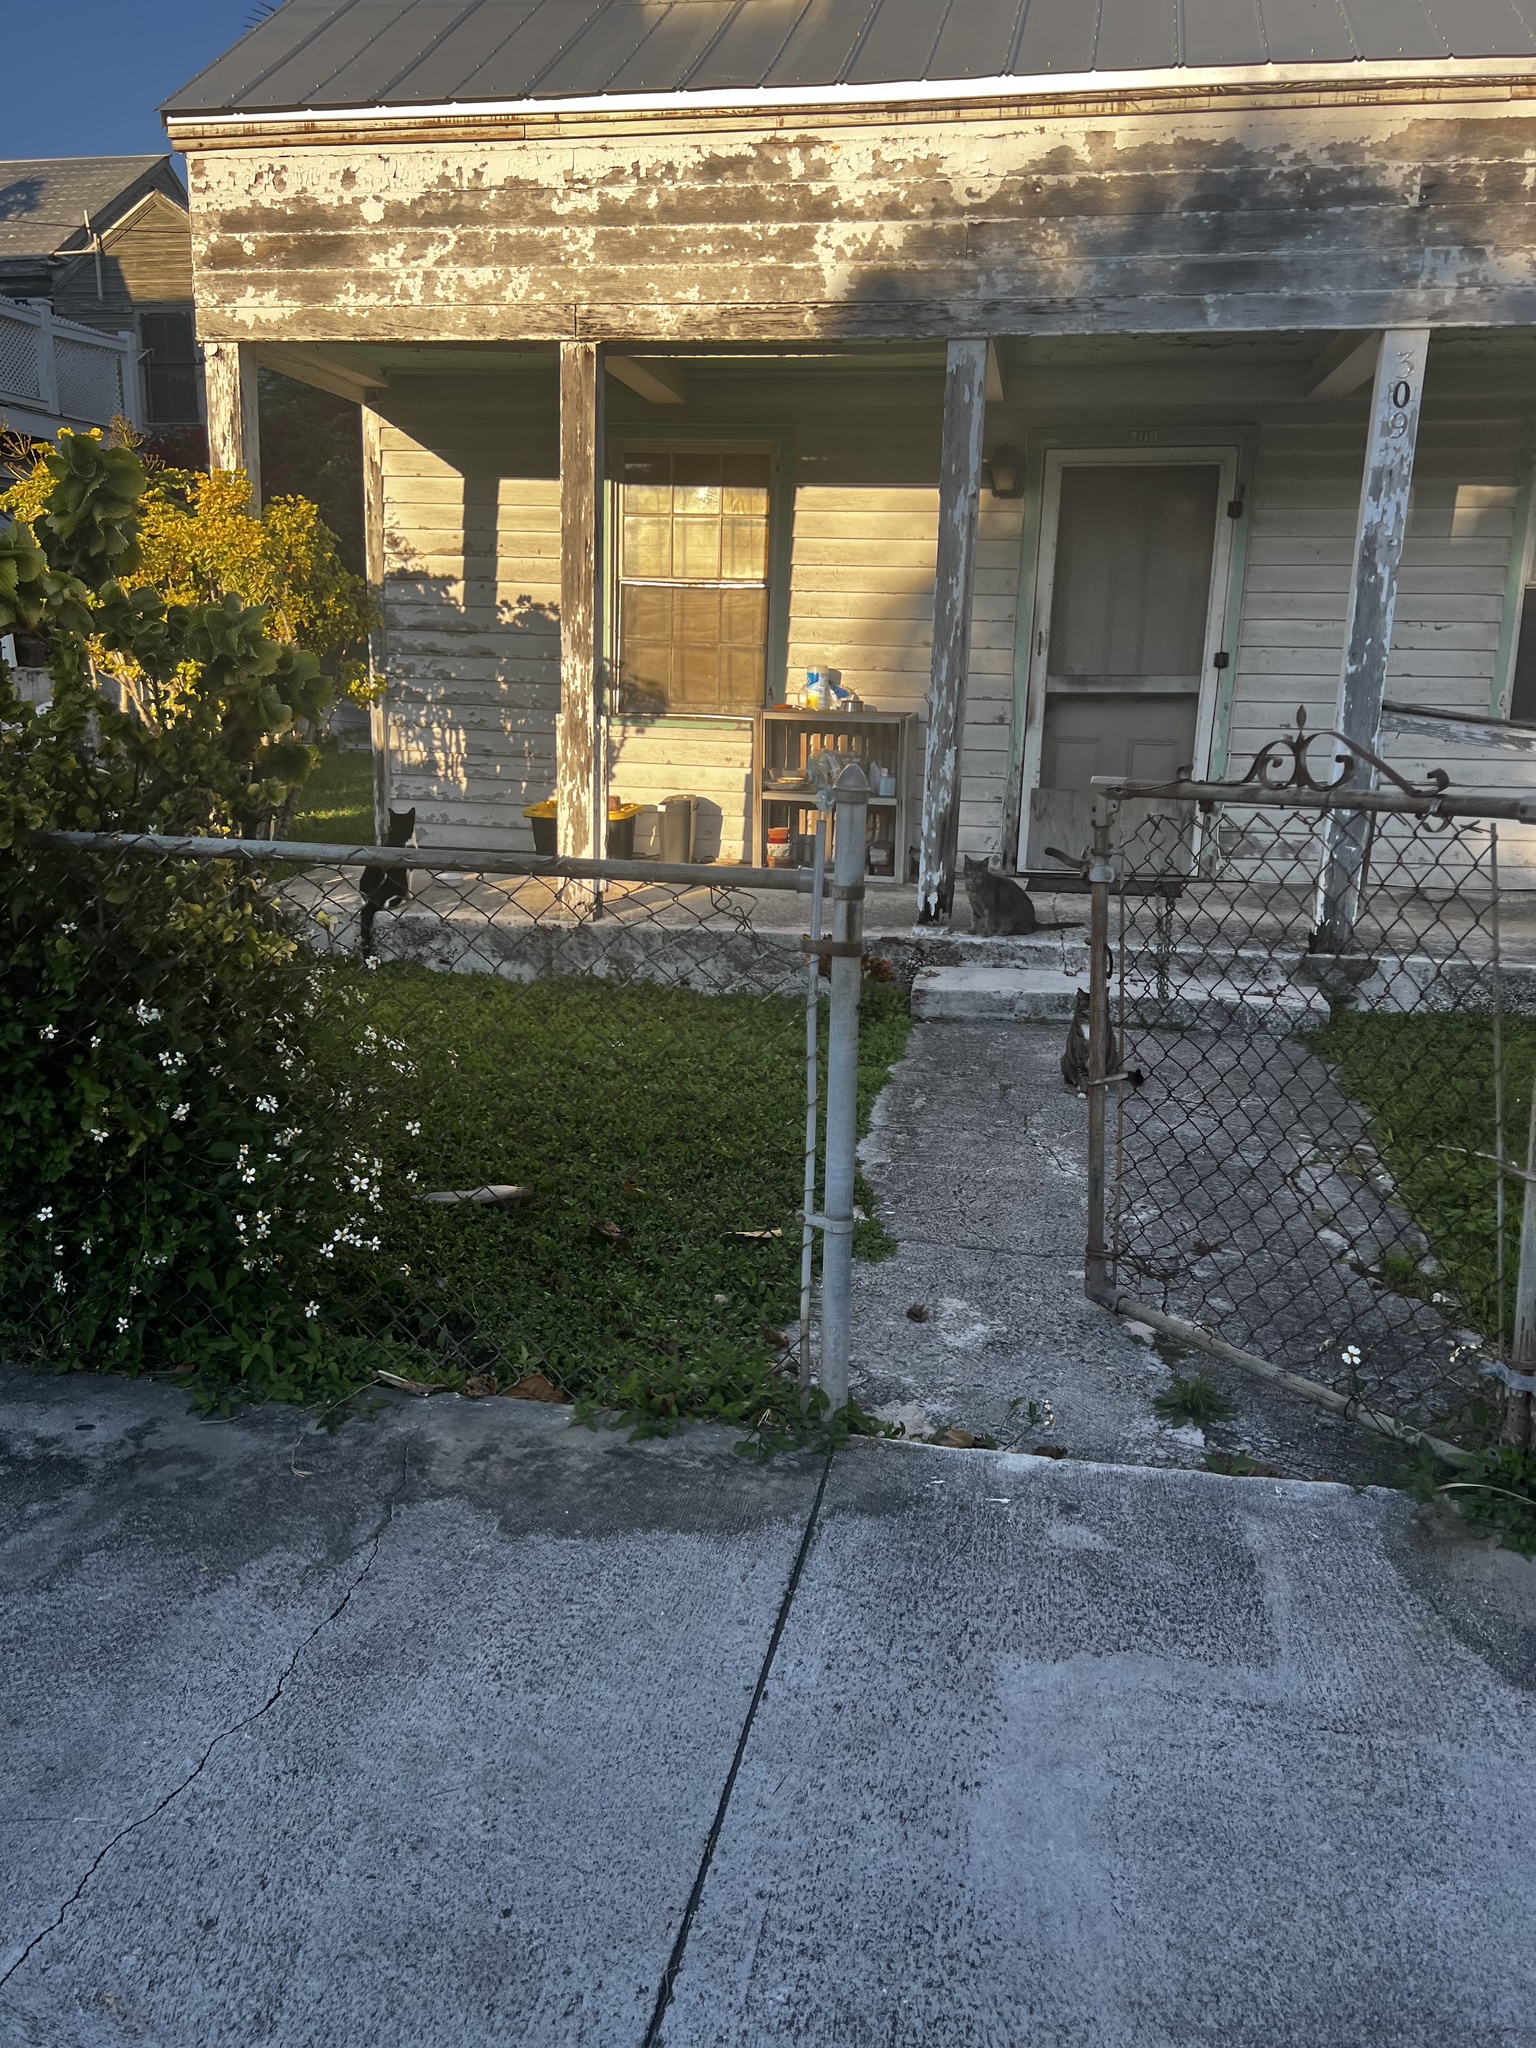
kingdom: Animalia
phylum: Chordata
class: Mammalia
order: Carnivora
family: Felidae
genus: Felis
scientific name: Felis catus
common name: Domestic cat
